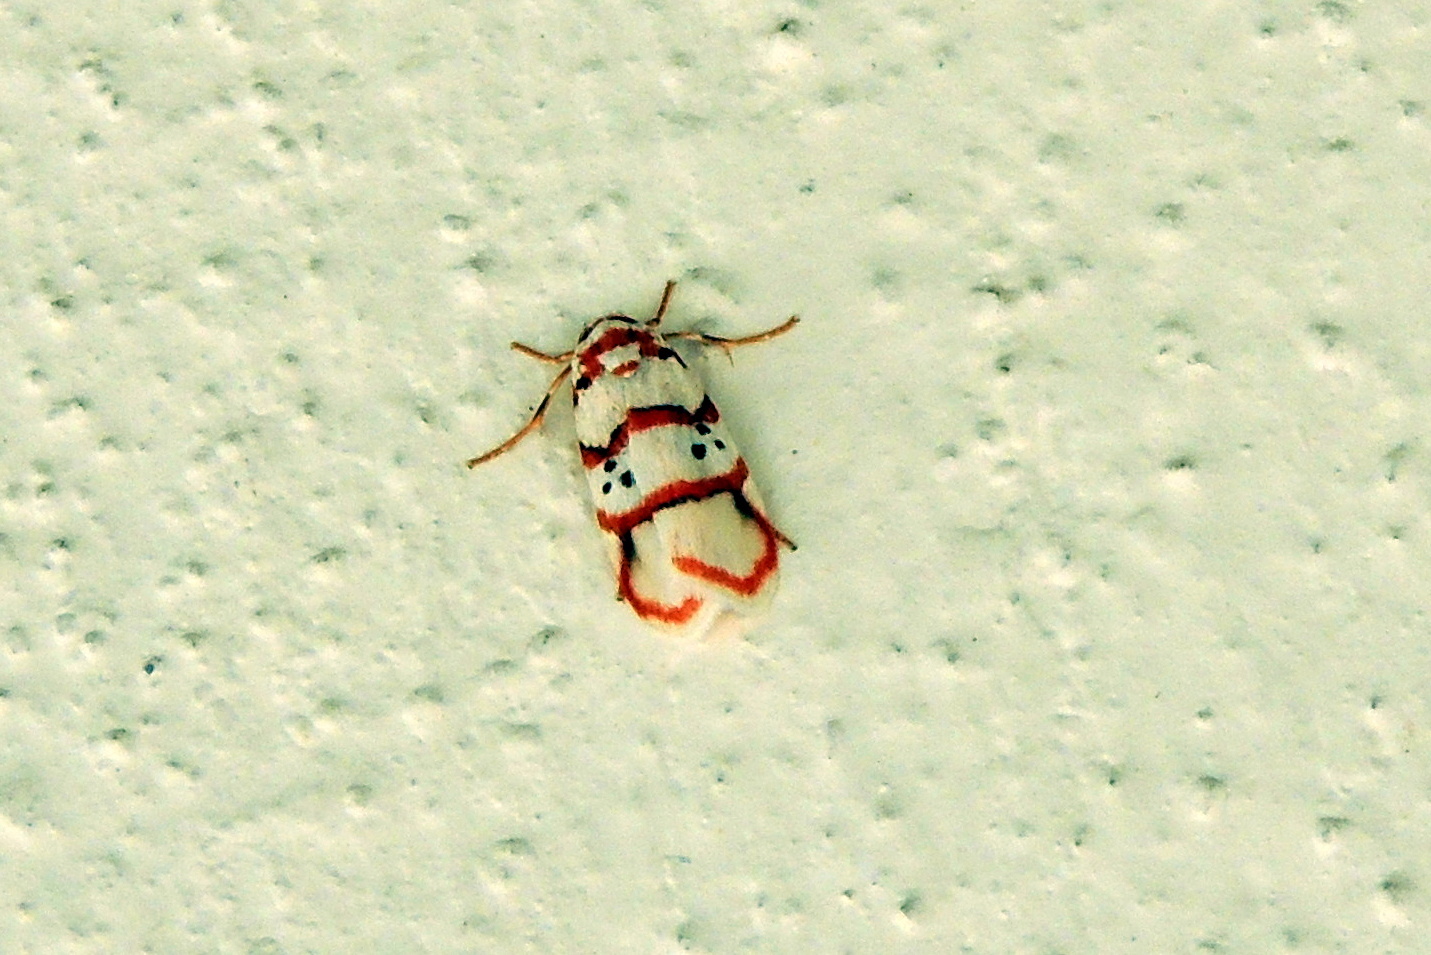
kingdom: Animalia
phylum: Arthropoda
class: Insecta
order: Lepidoptera
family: Erebidae
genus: Cyana
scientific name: Cyana peregrina
